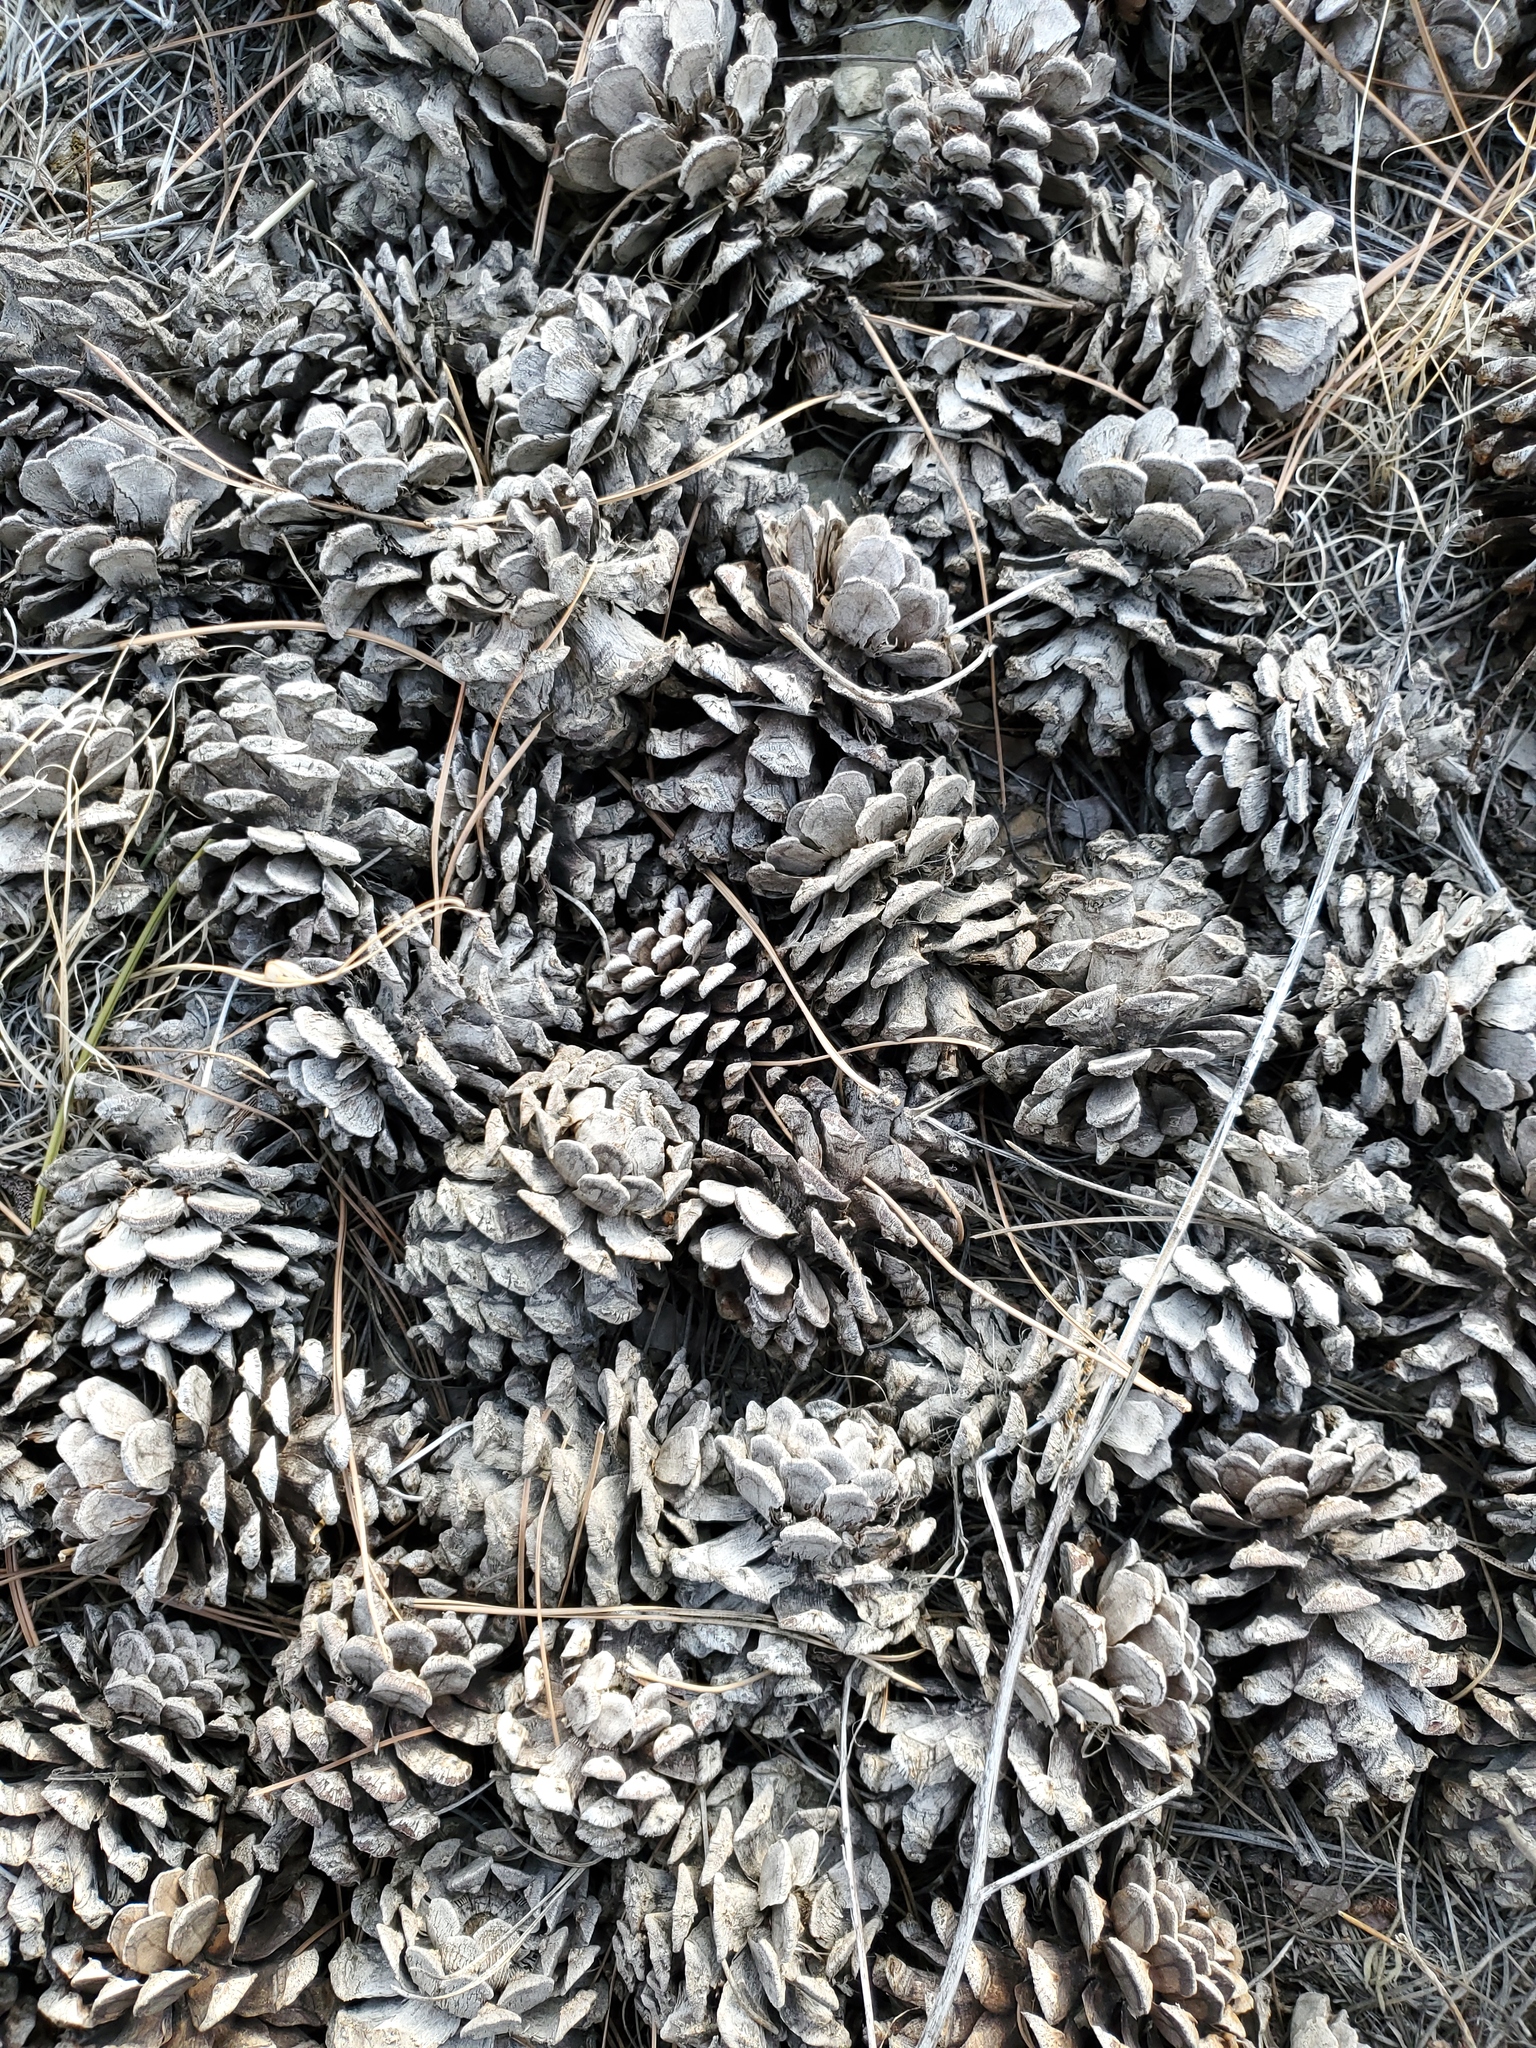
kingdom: Plantae
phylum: Tracheophyta
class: Pinopsida
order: Pinales
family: Pinaceae
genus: Pinus
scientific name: Pinus ponderosa
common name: Western yellow-pine
